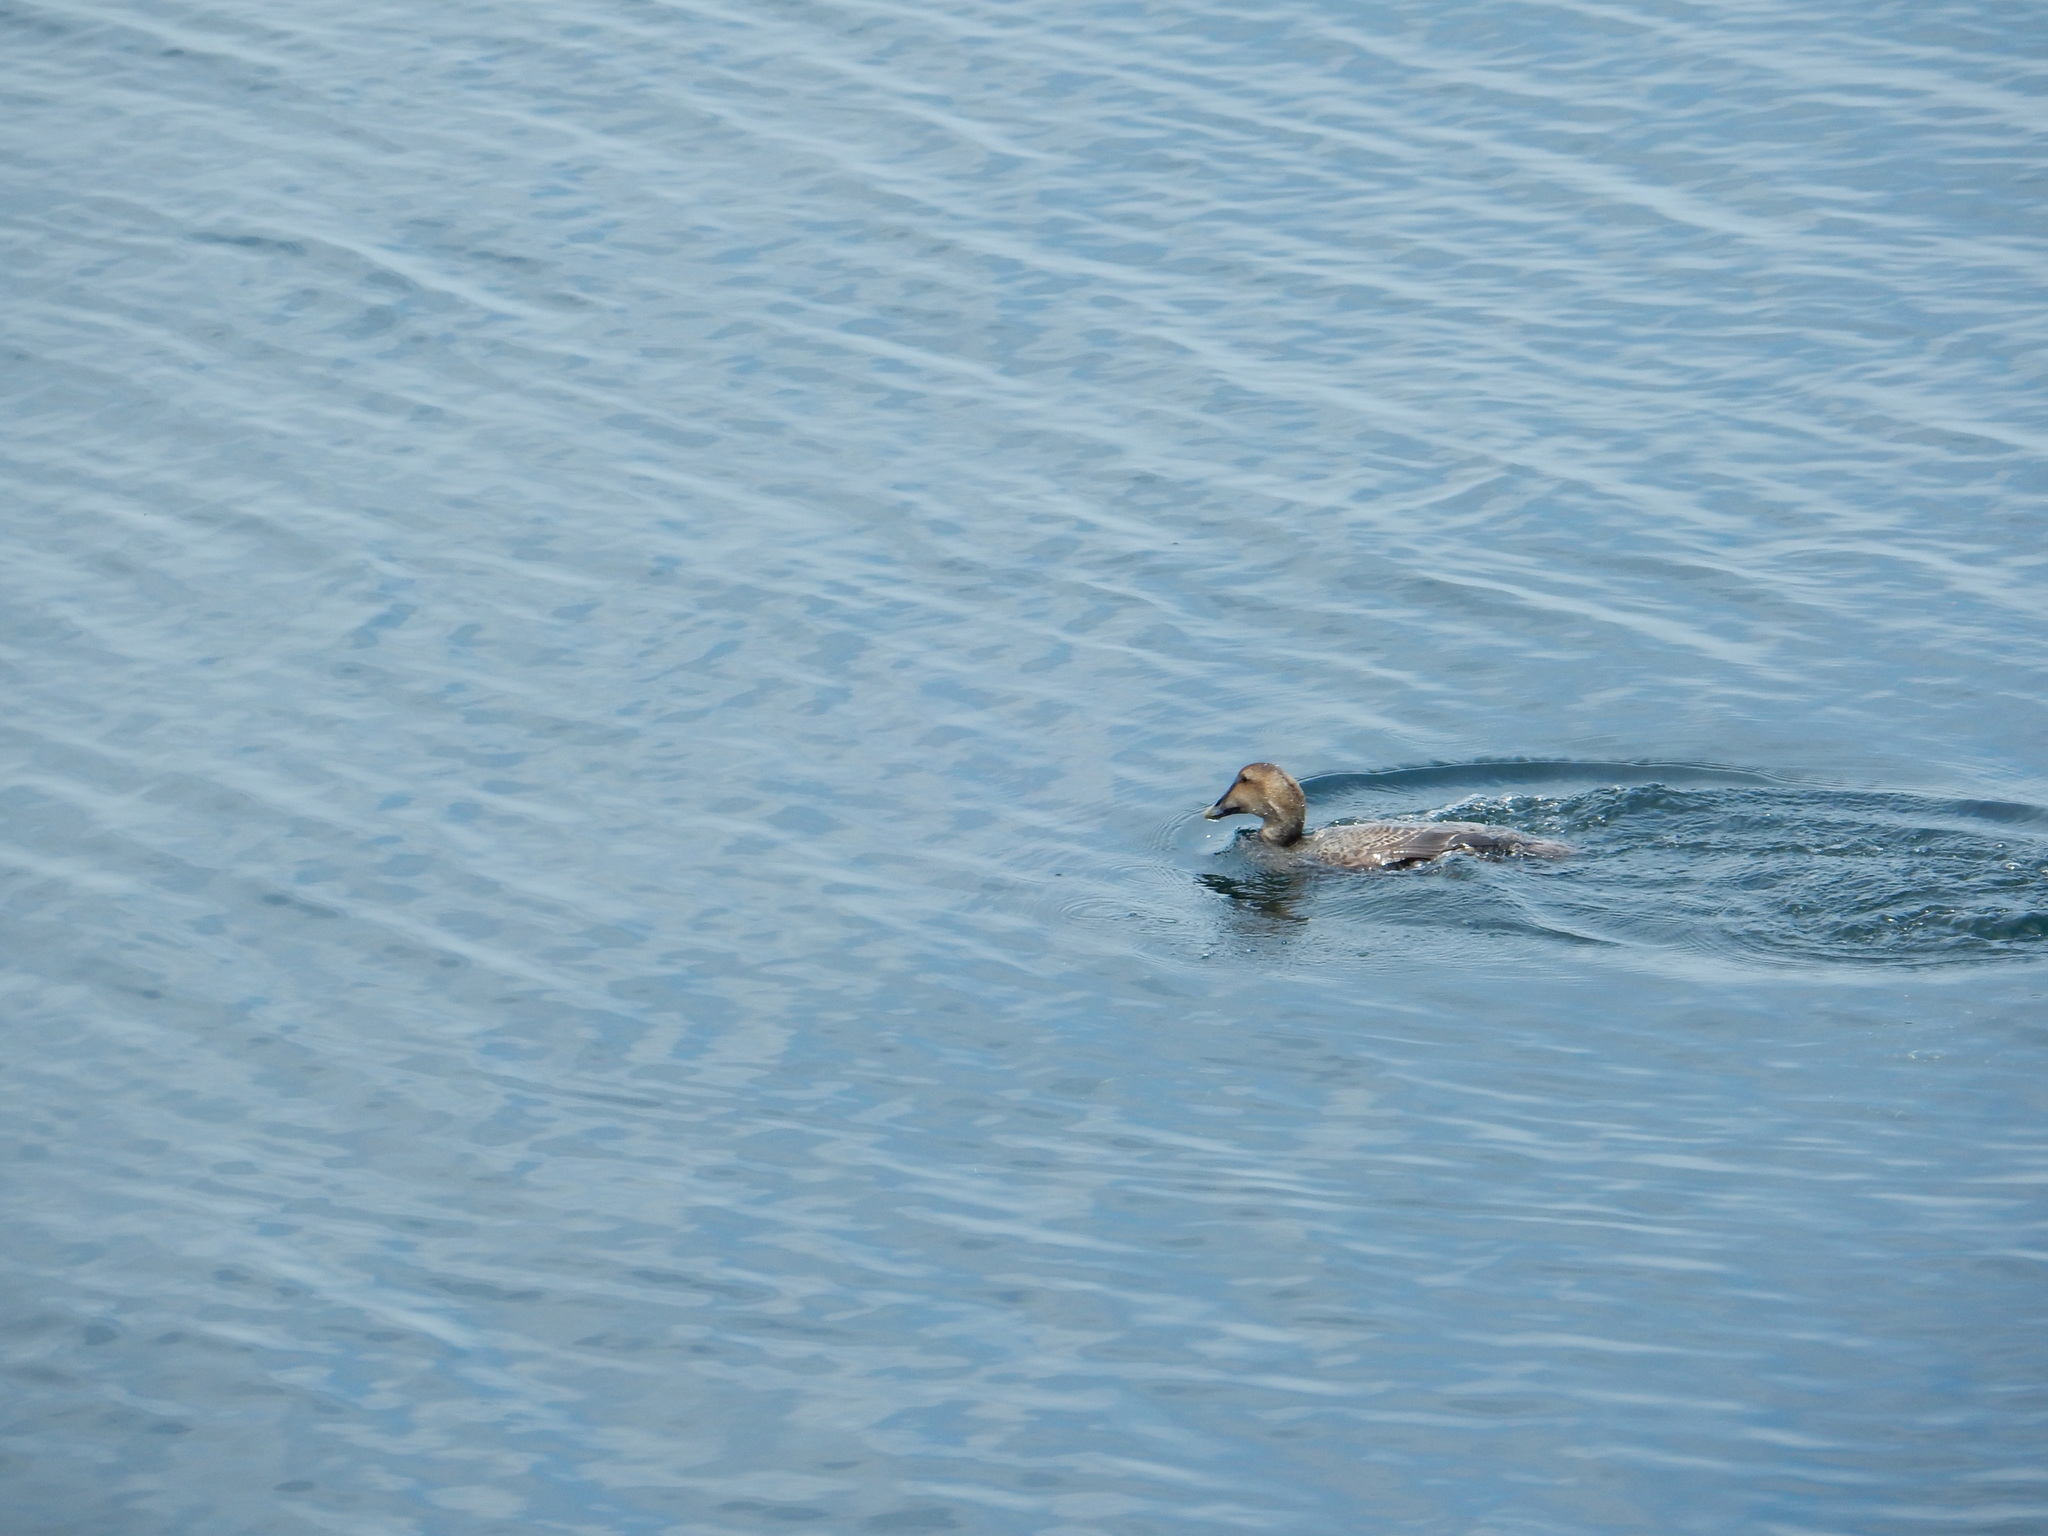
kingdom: Animalia
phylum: Chordata
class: Aves
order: Anseriformes
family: Anatidae
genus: Somateria
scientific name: Somateria mollissima
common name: Common eider
